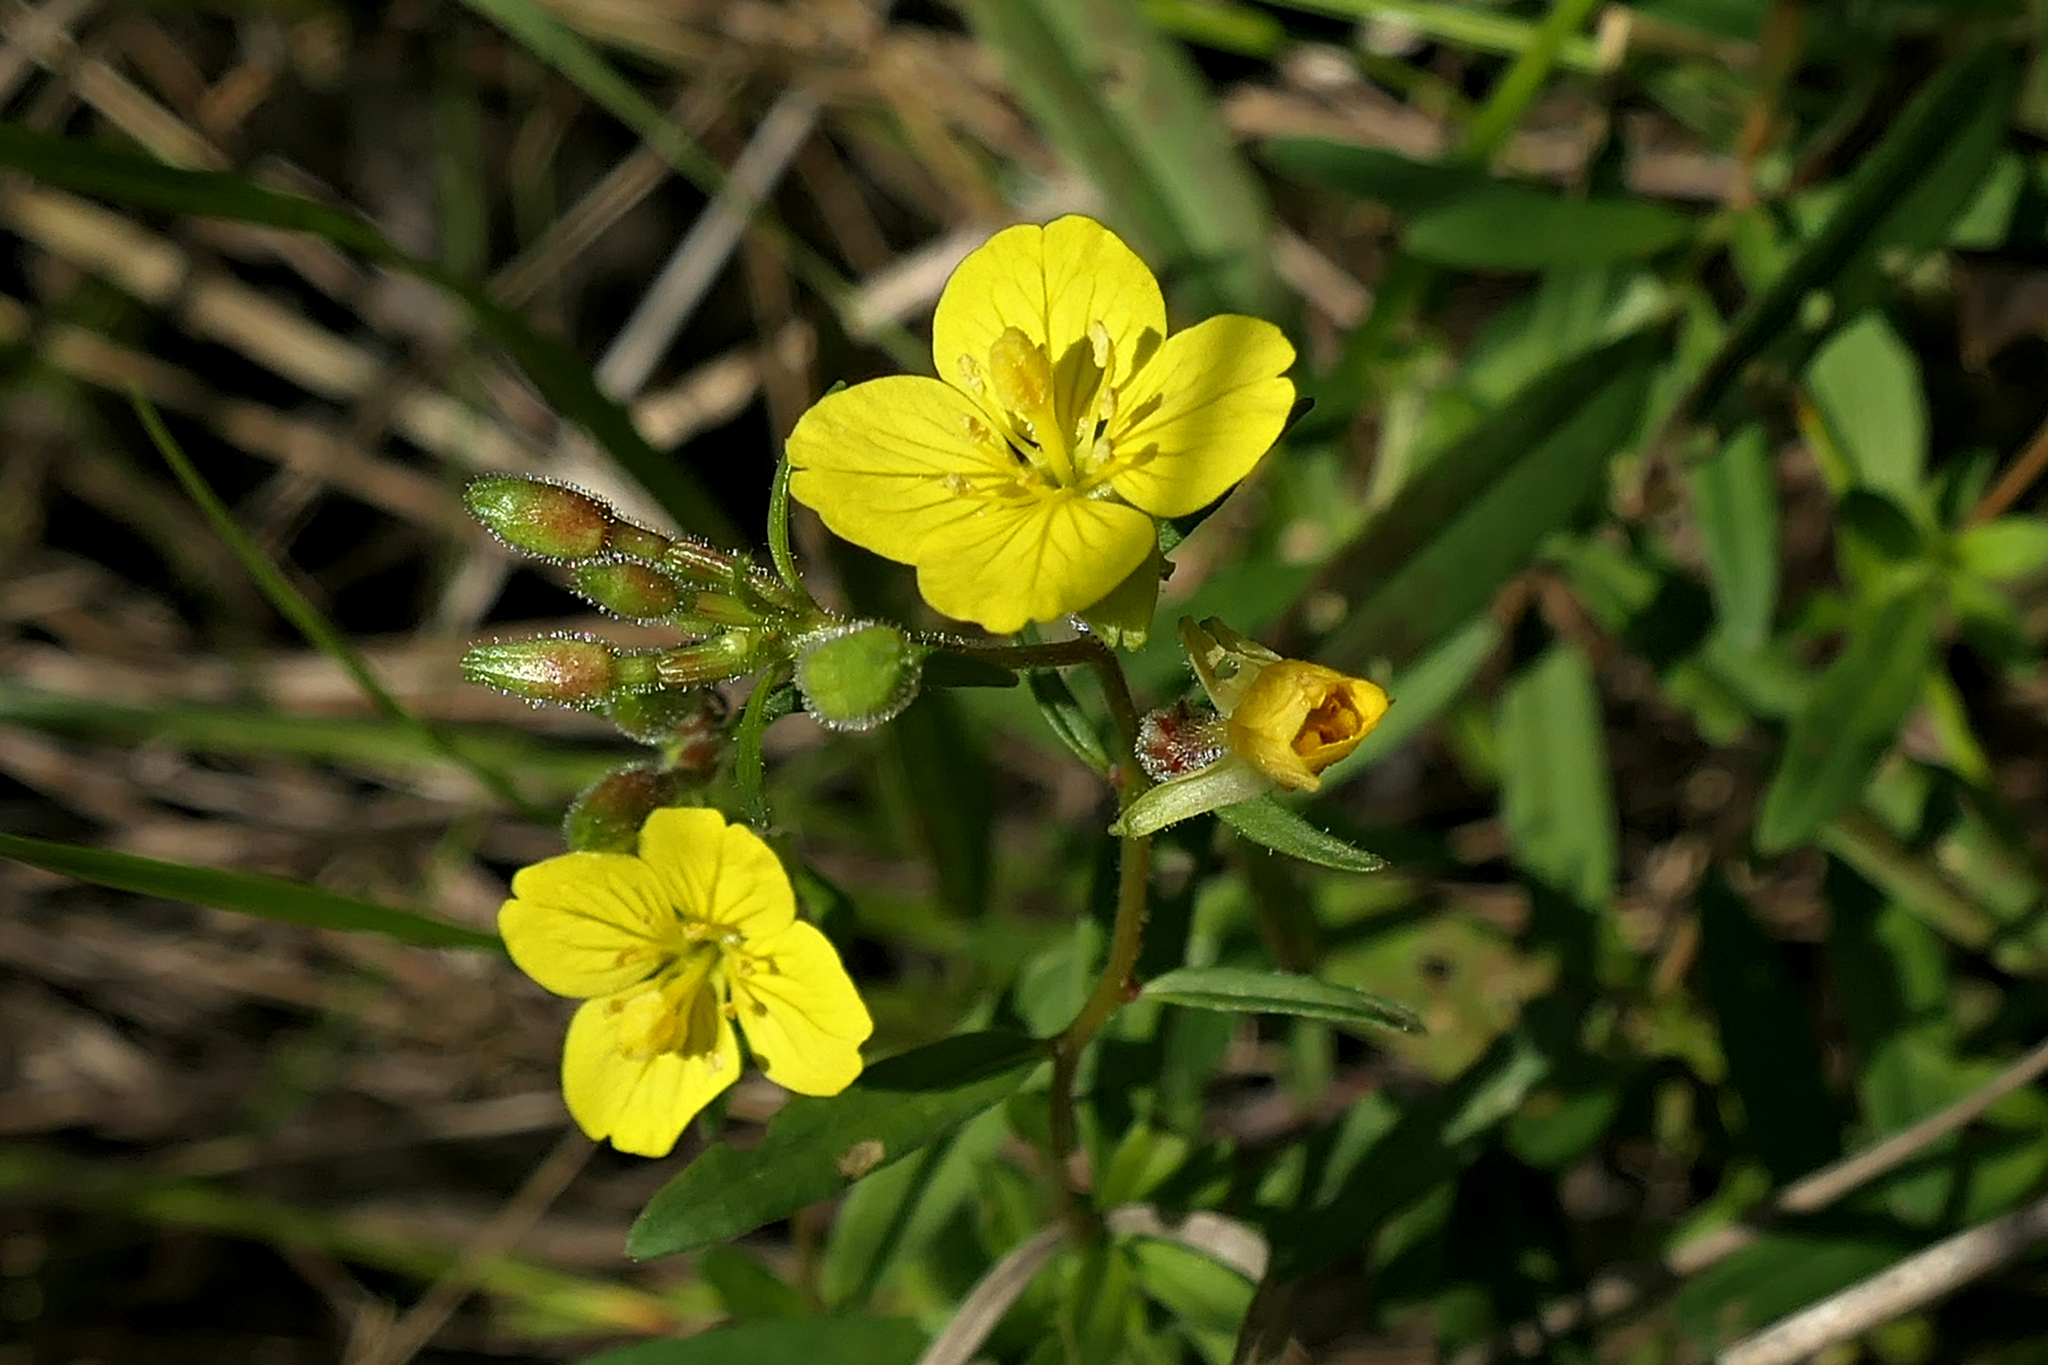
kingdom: Plantae
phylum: Tracheophyta
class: Magnoliopsida
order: Myrtales
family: Onagraceae
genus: Oenothera
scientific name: Oenothera perennis
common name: Small sundrops
